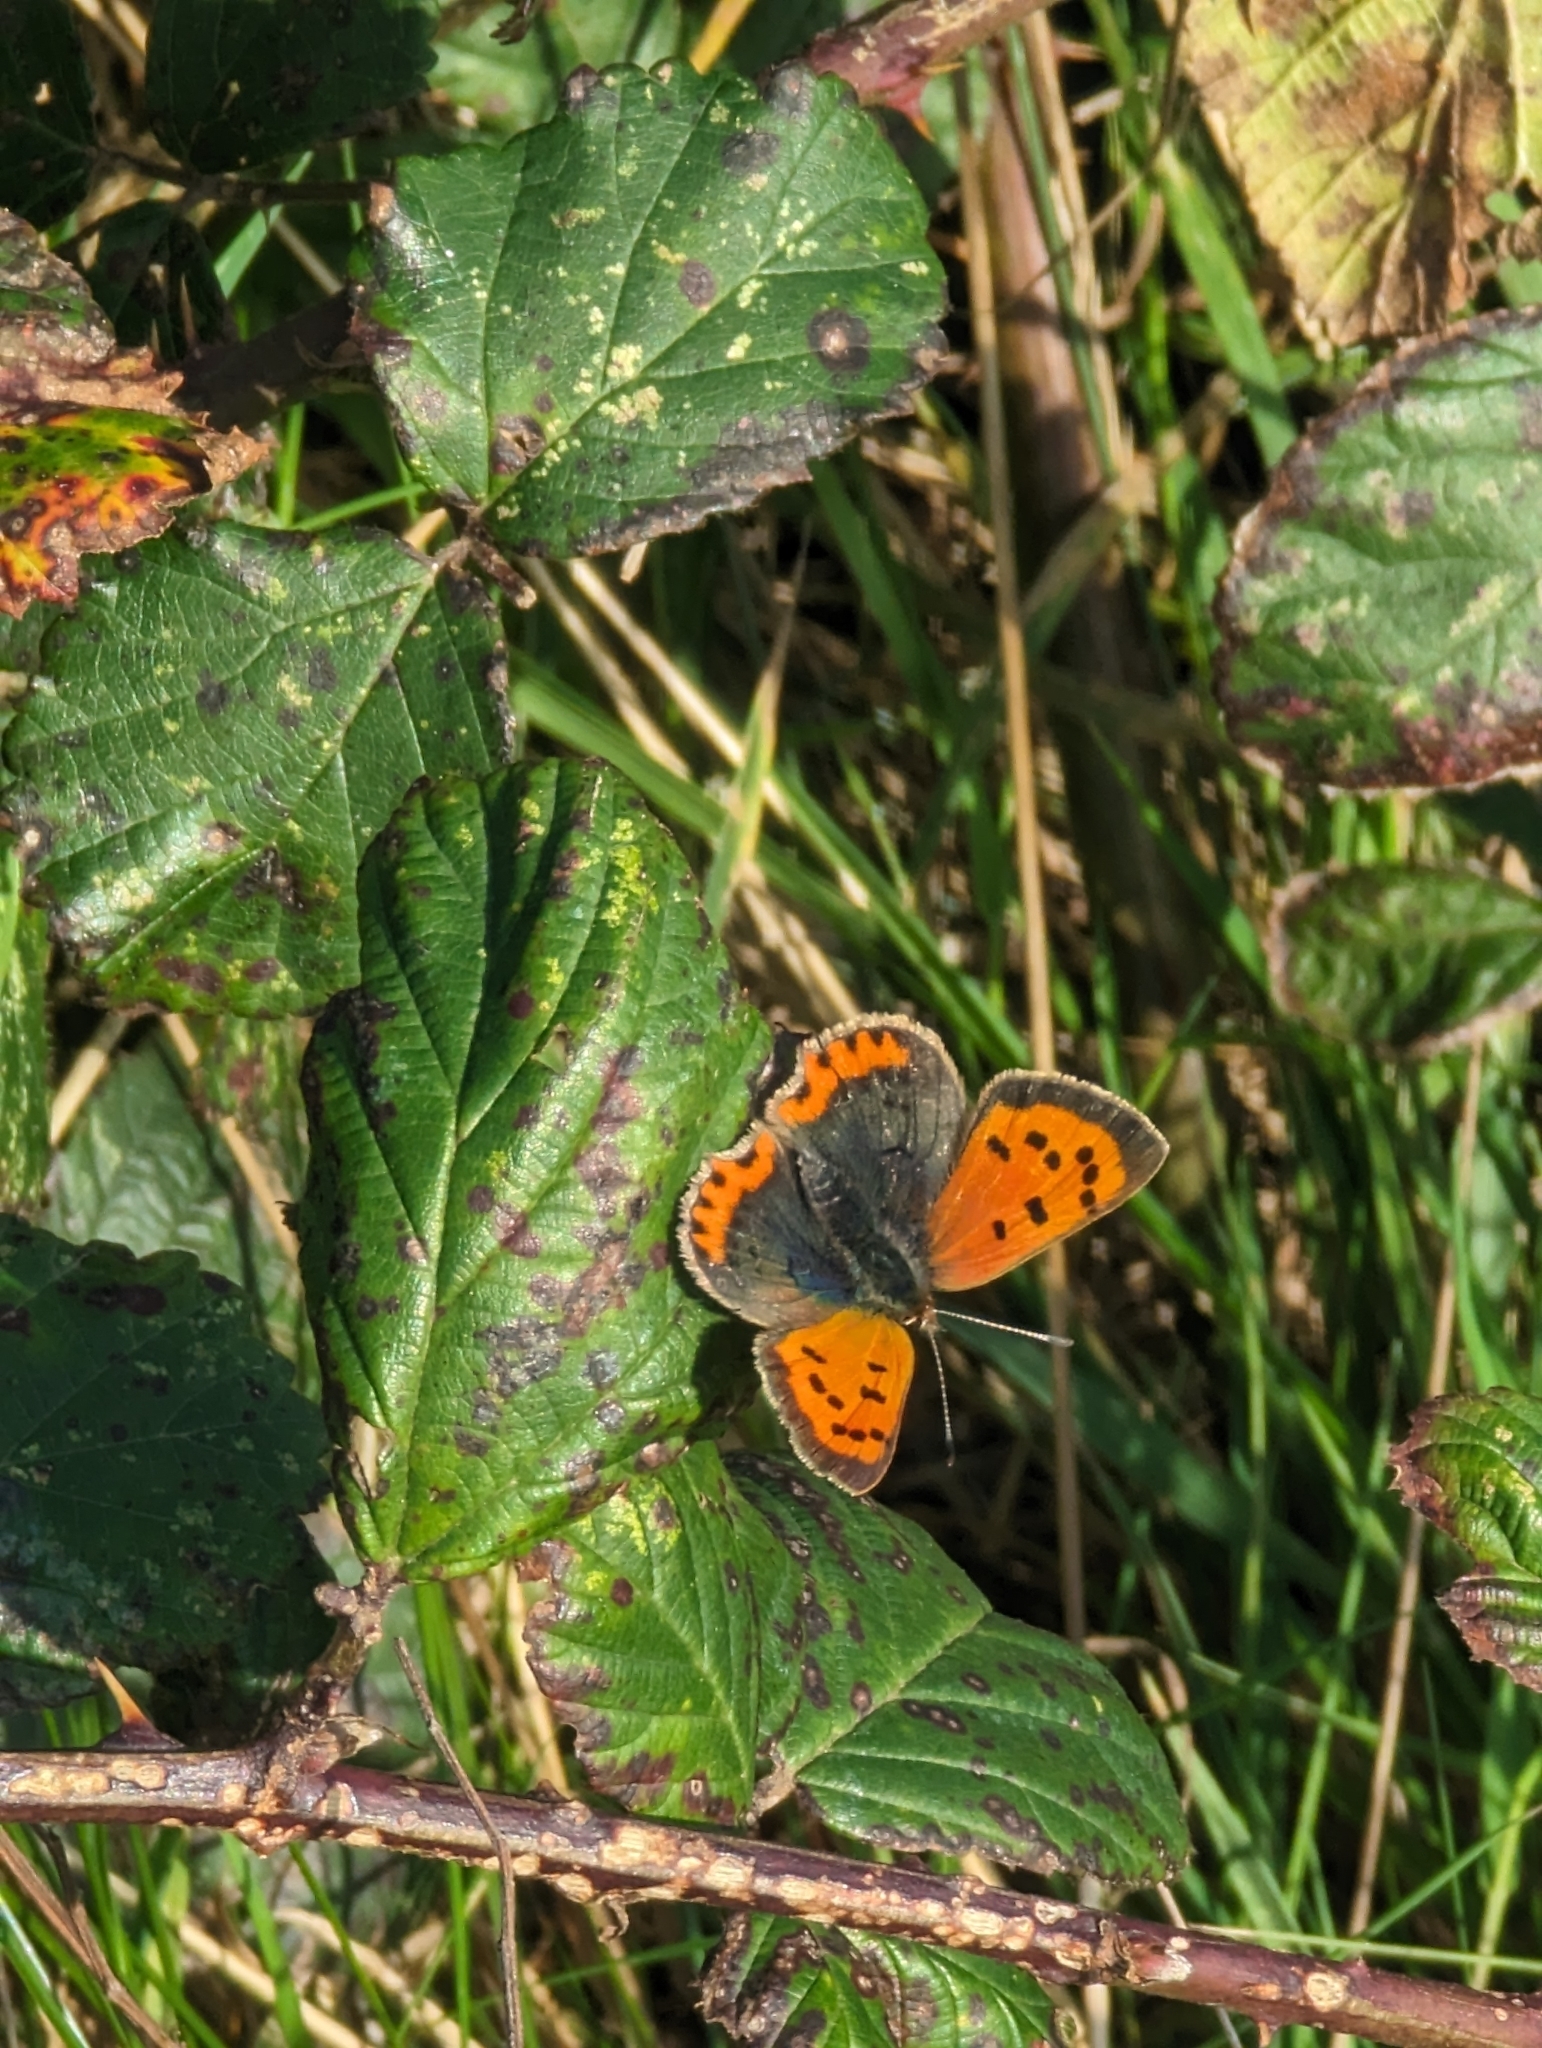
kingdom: Animalia
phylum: Arthropoda
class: Insecta
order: Lepidoptera
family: Lycaenidae
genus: Lycaena
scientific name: Lycaena phlaeas
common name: Small copper
